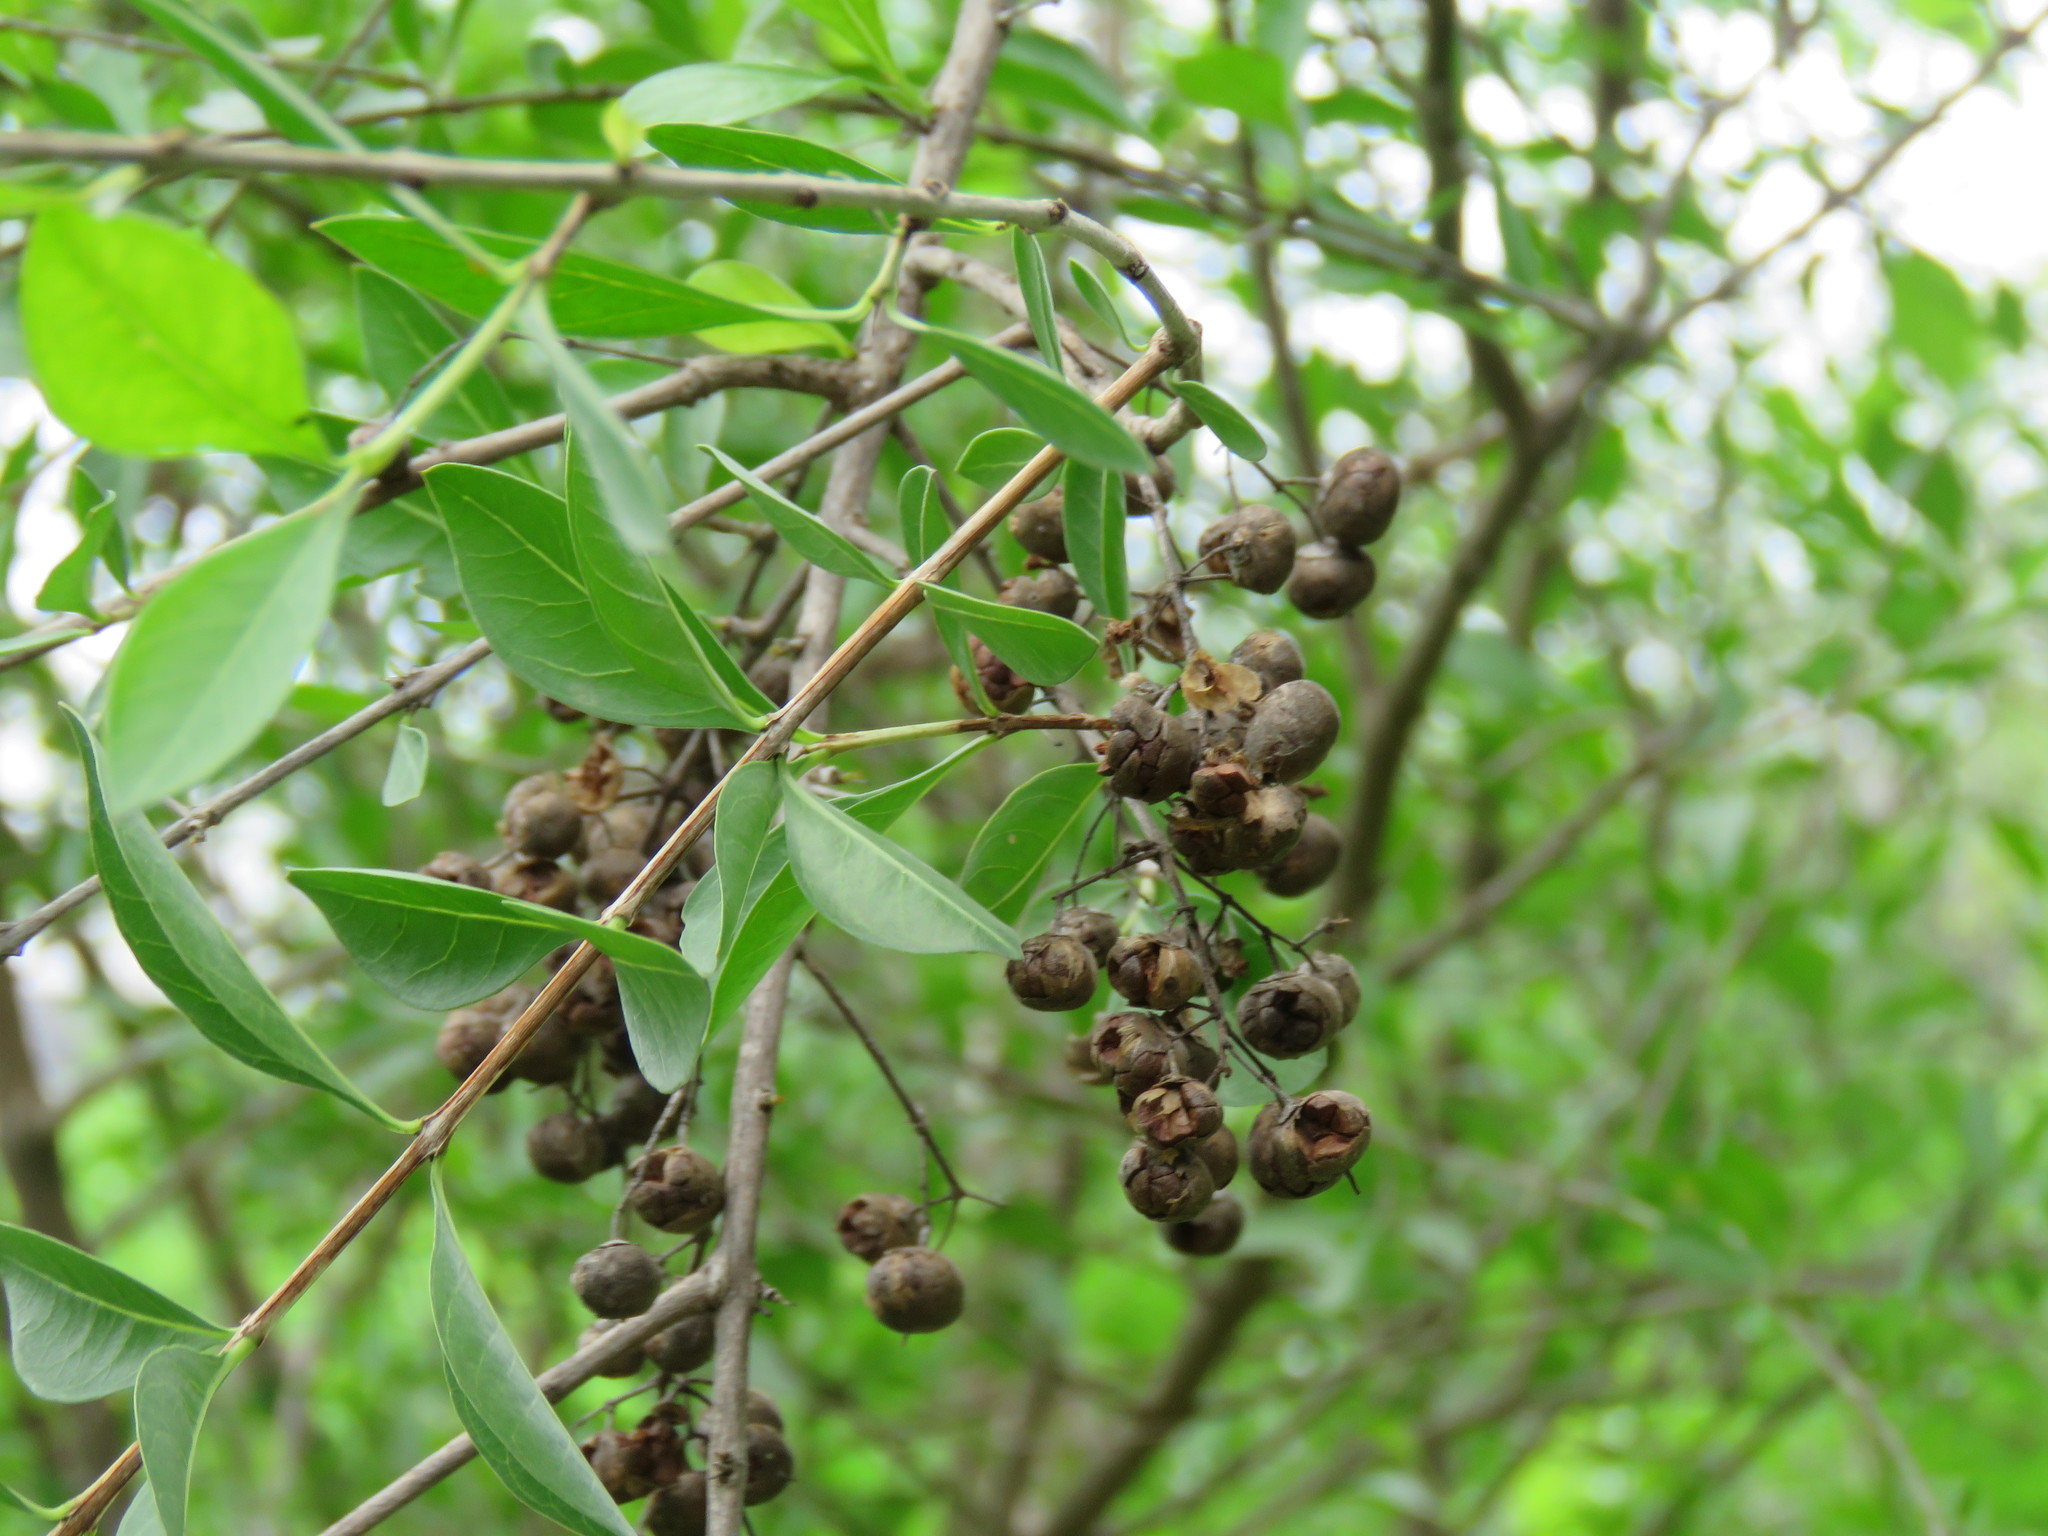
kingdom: Plantae
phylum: Tracheophyta
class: Magnoliopsida
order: Myrtales
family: Combretaceae
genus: Conocarpus
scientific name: Conocarpus erectus
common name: Button mangrove
